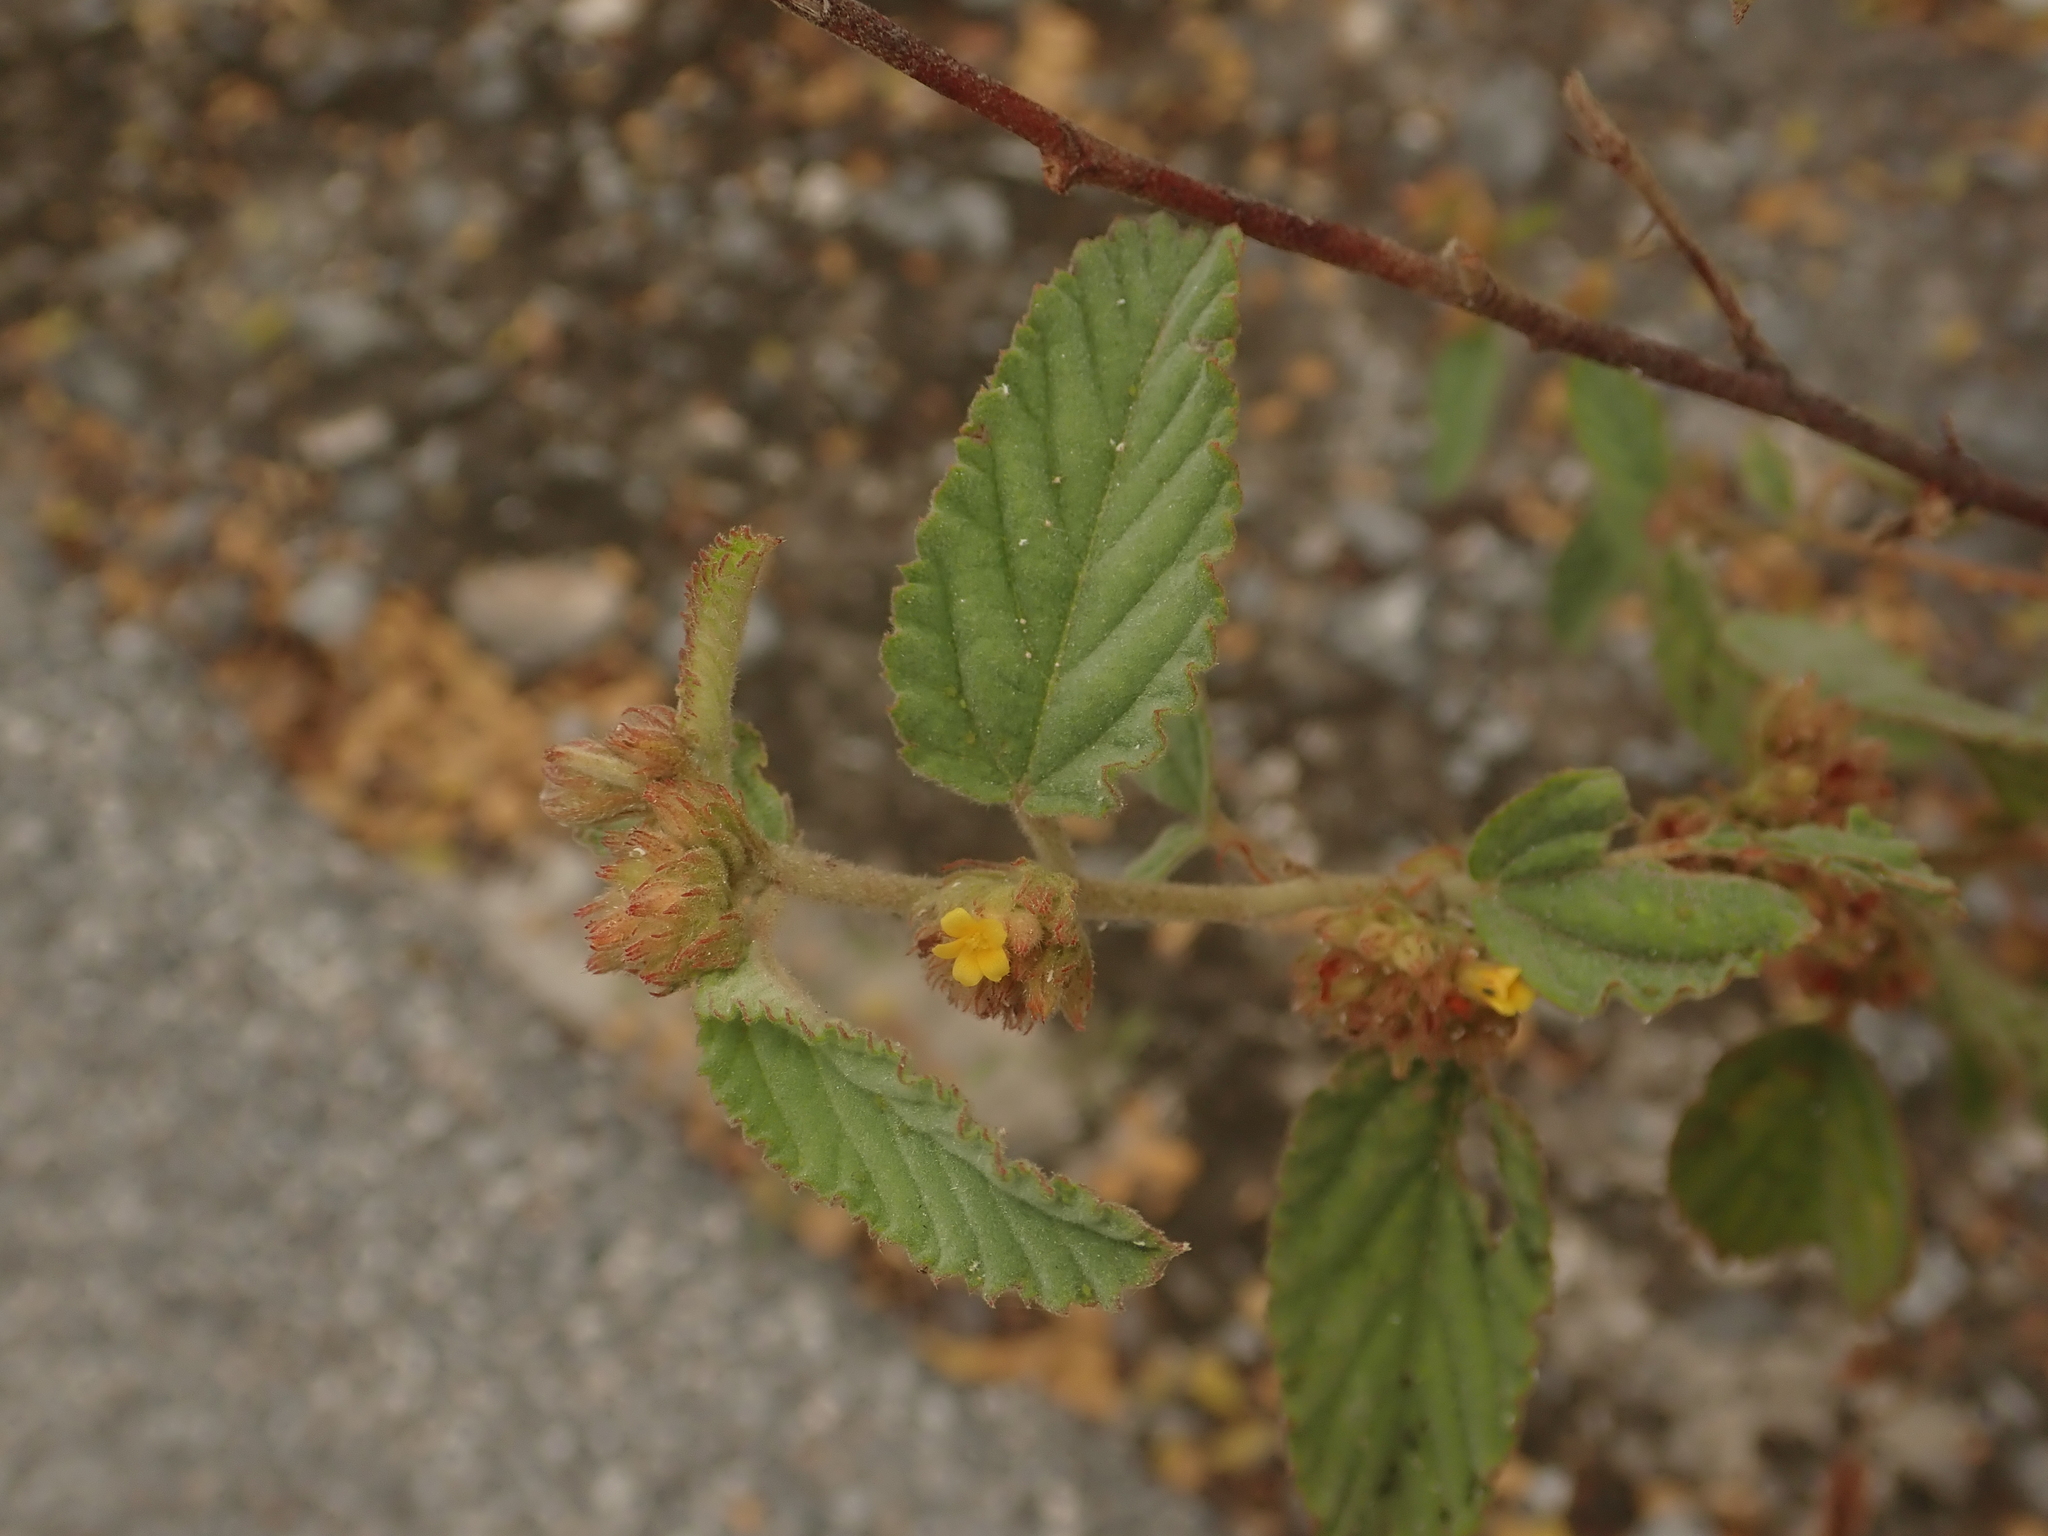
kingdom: Plantae
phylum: Tracheophyta
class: Magnoliopsida
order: Malvales
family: Malvaceae
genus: Waltheria
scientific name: Waltheria indica
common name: Leather-coat
